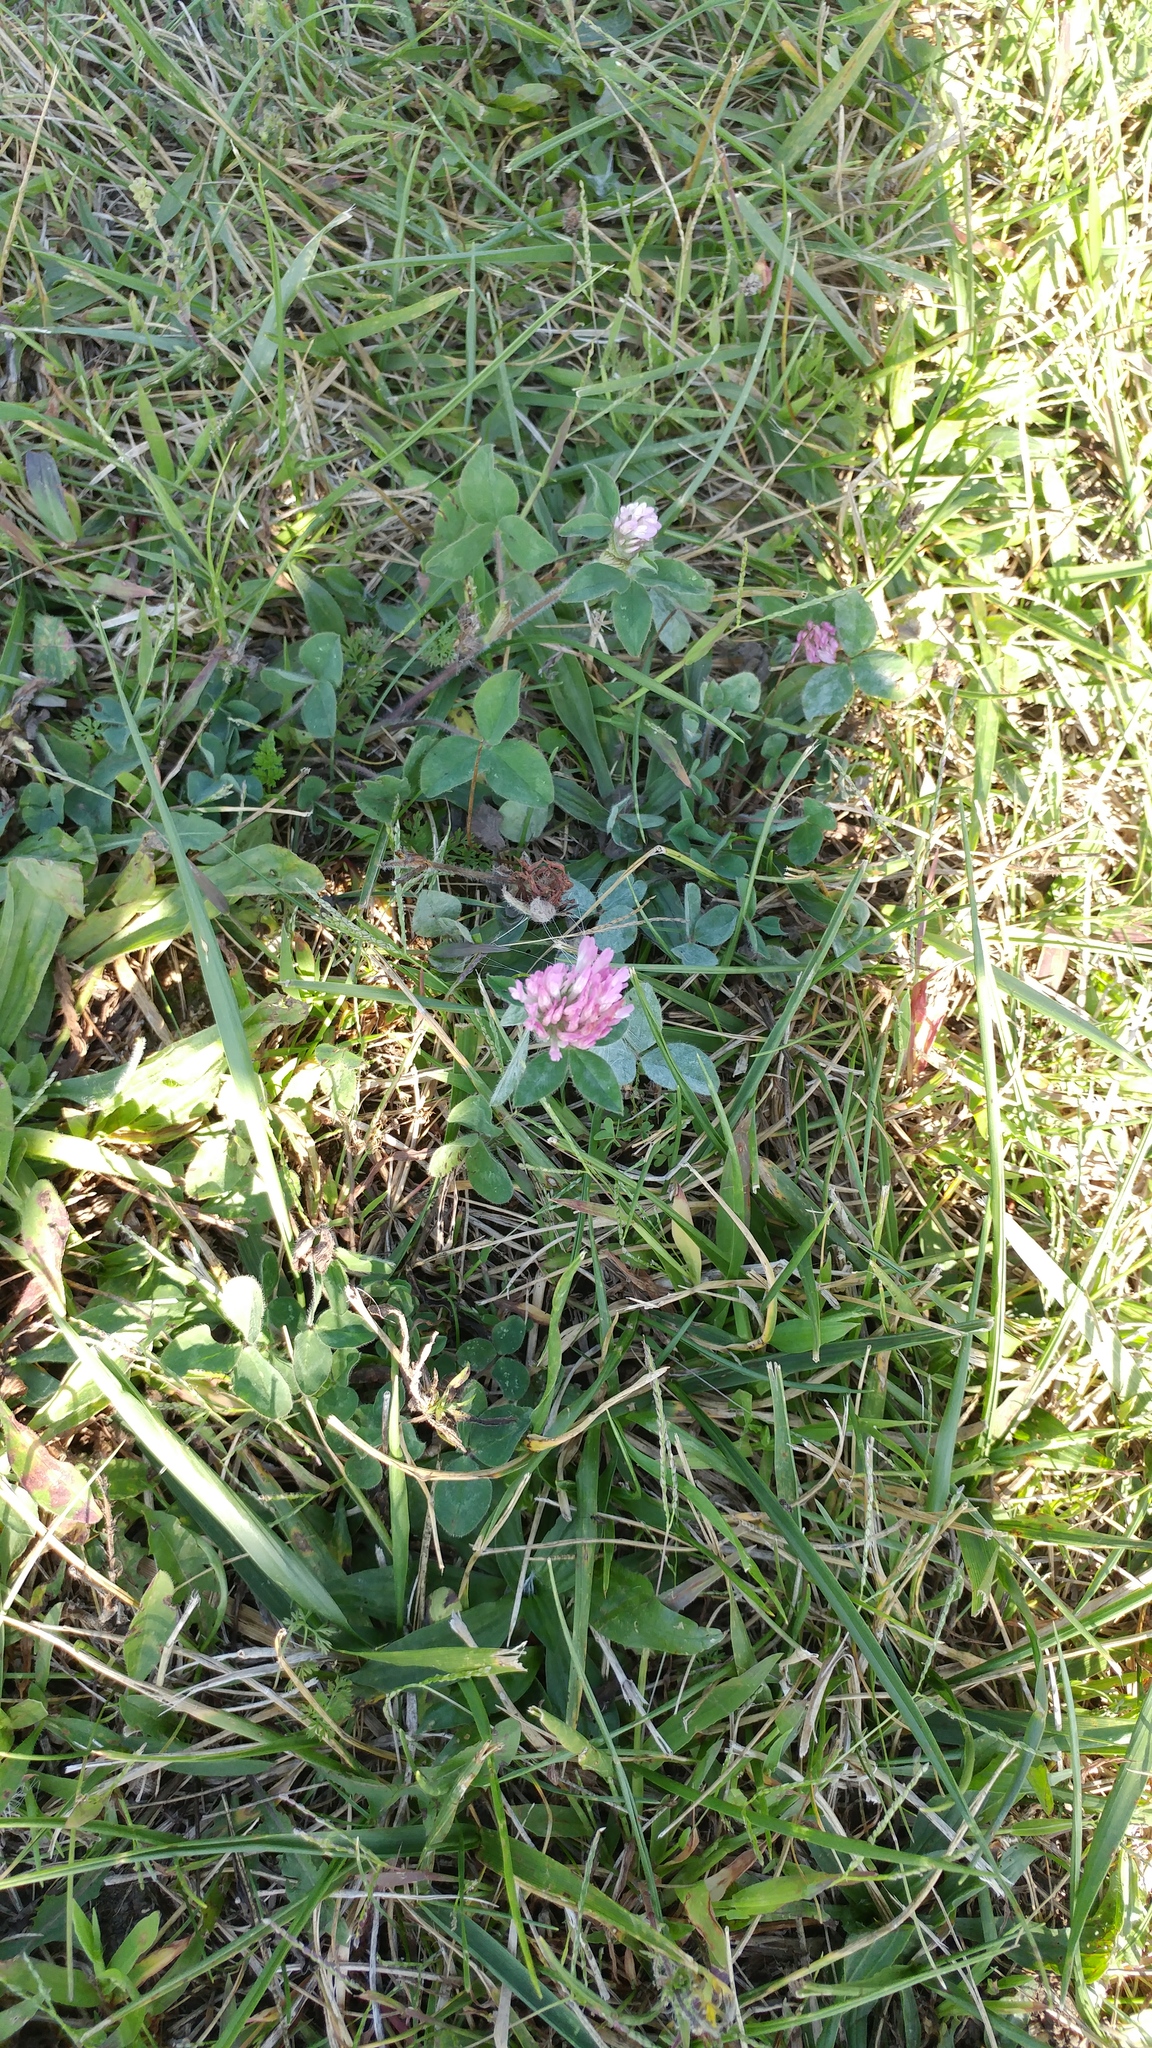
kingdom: Plantae
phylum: Tracheophyta
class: Magnoliopsida
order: Fabales
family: Fabaceae
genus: Trifolium
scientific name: Trifolium pratense
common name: Red clover
